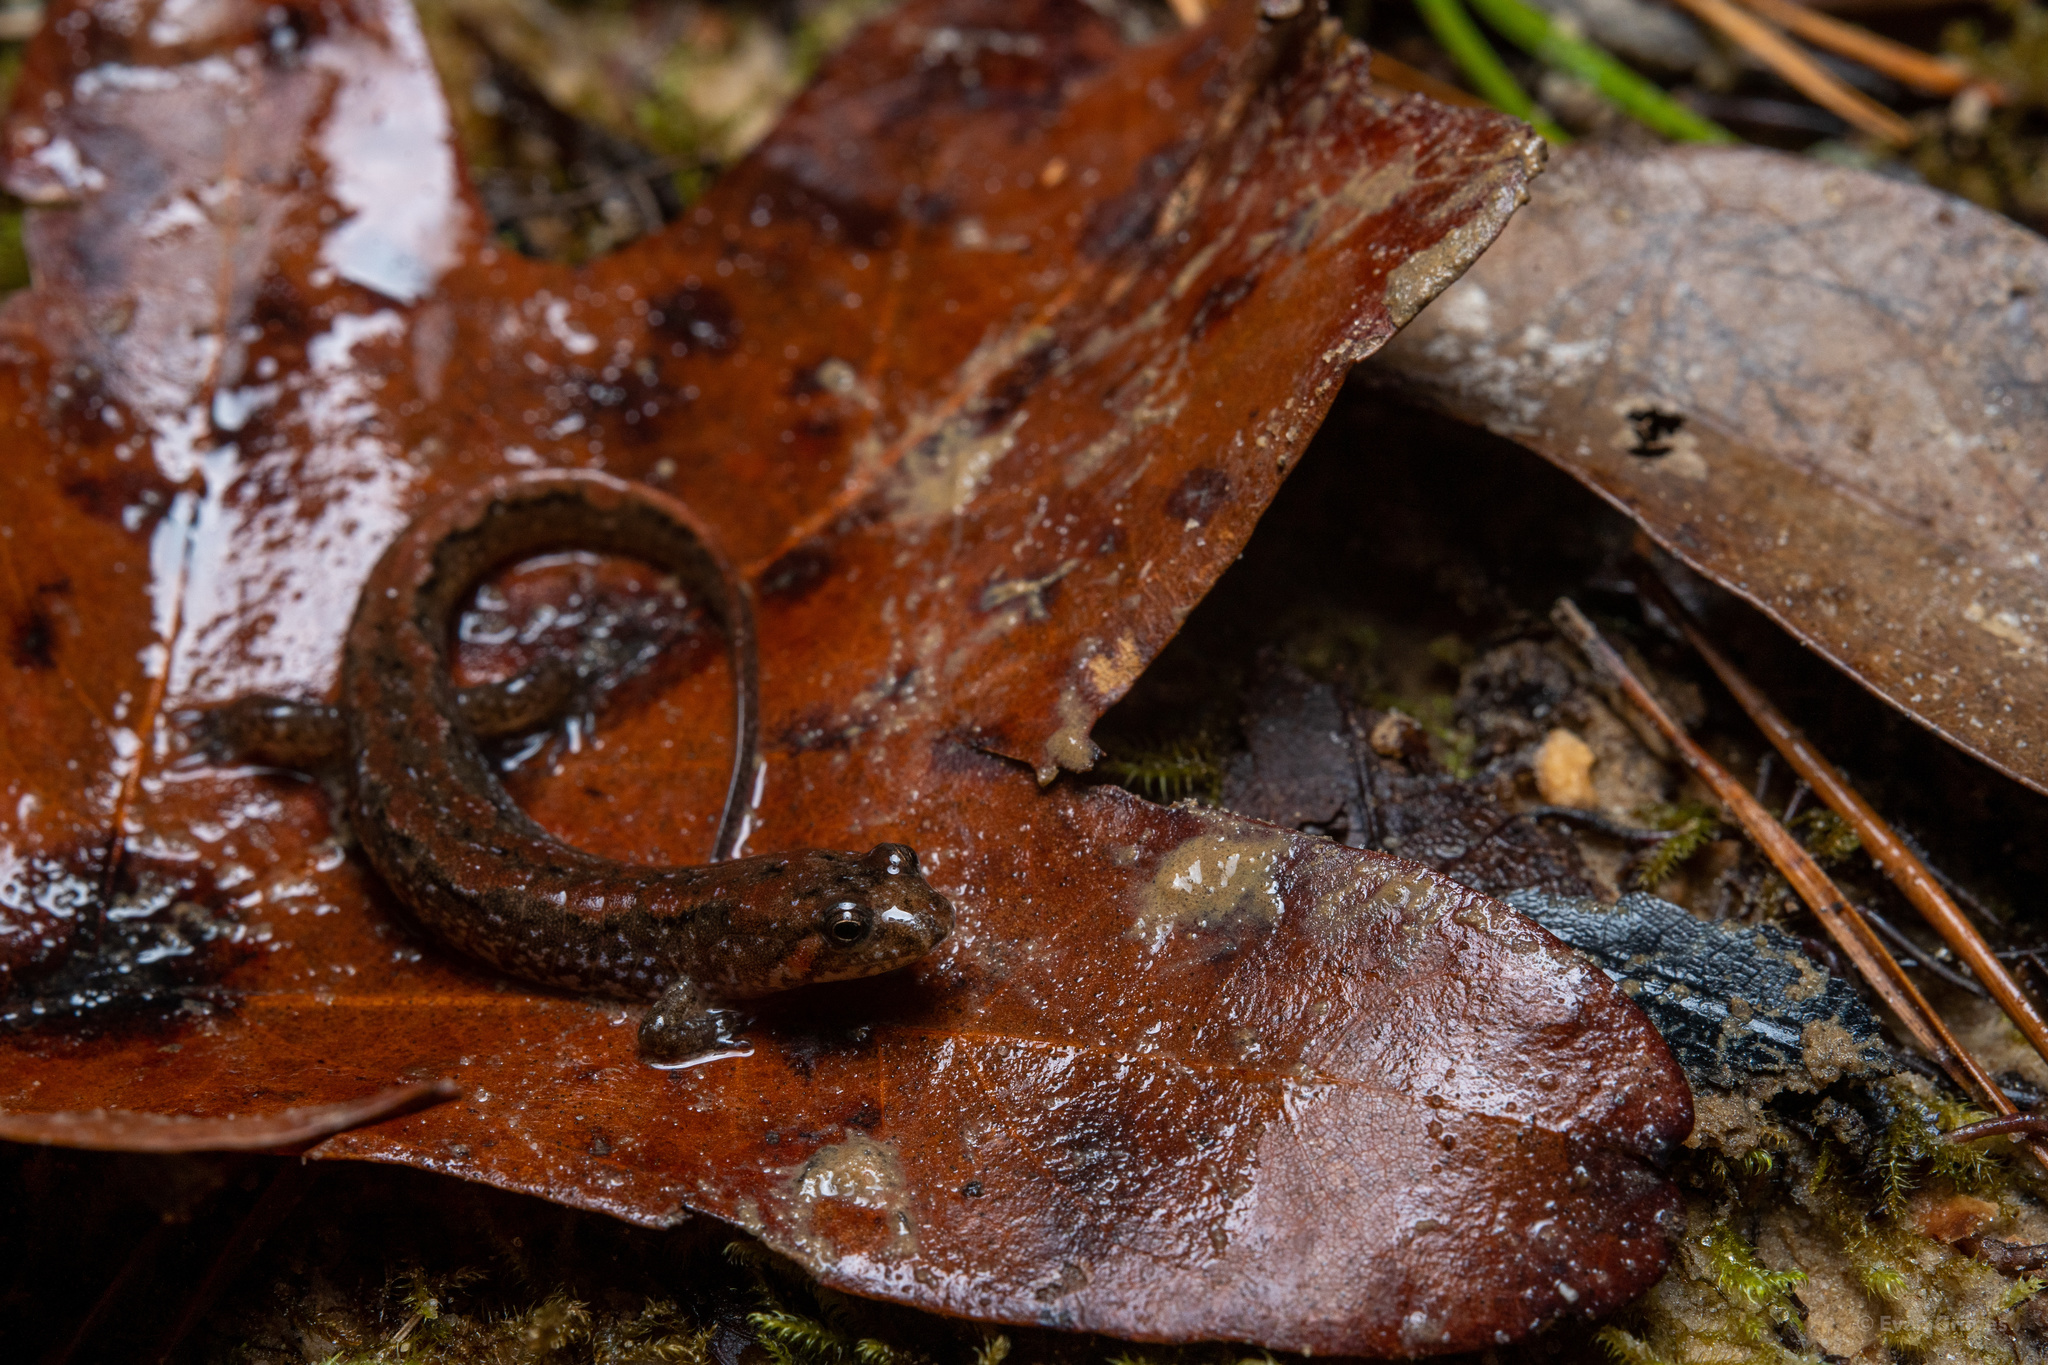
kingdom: Animalia
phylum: Chordata
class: Amphibia
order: Caudata
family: Plethodontidae
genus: Desmognathus
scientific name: Desmognathus conanti
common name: Spotted dusky salamander
